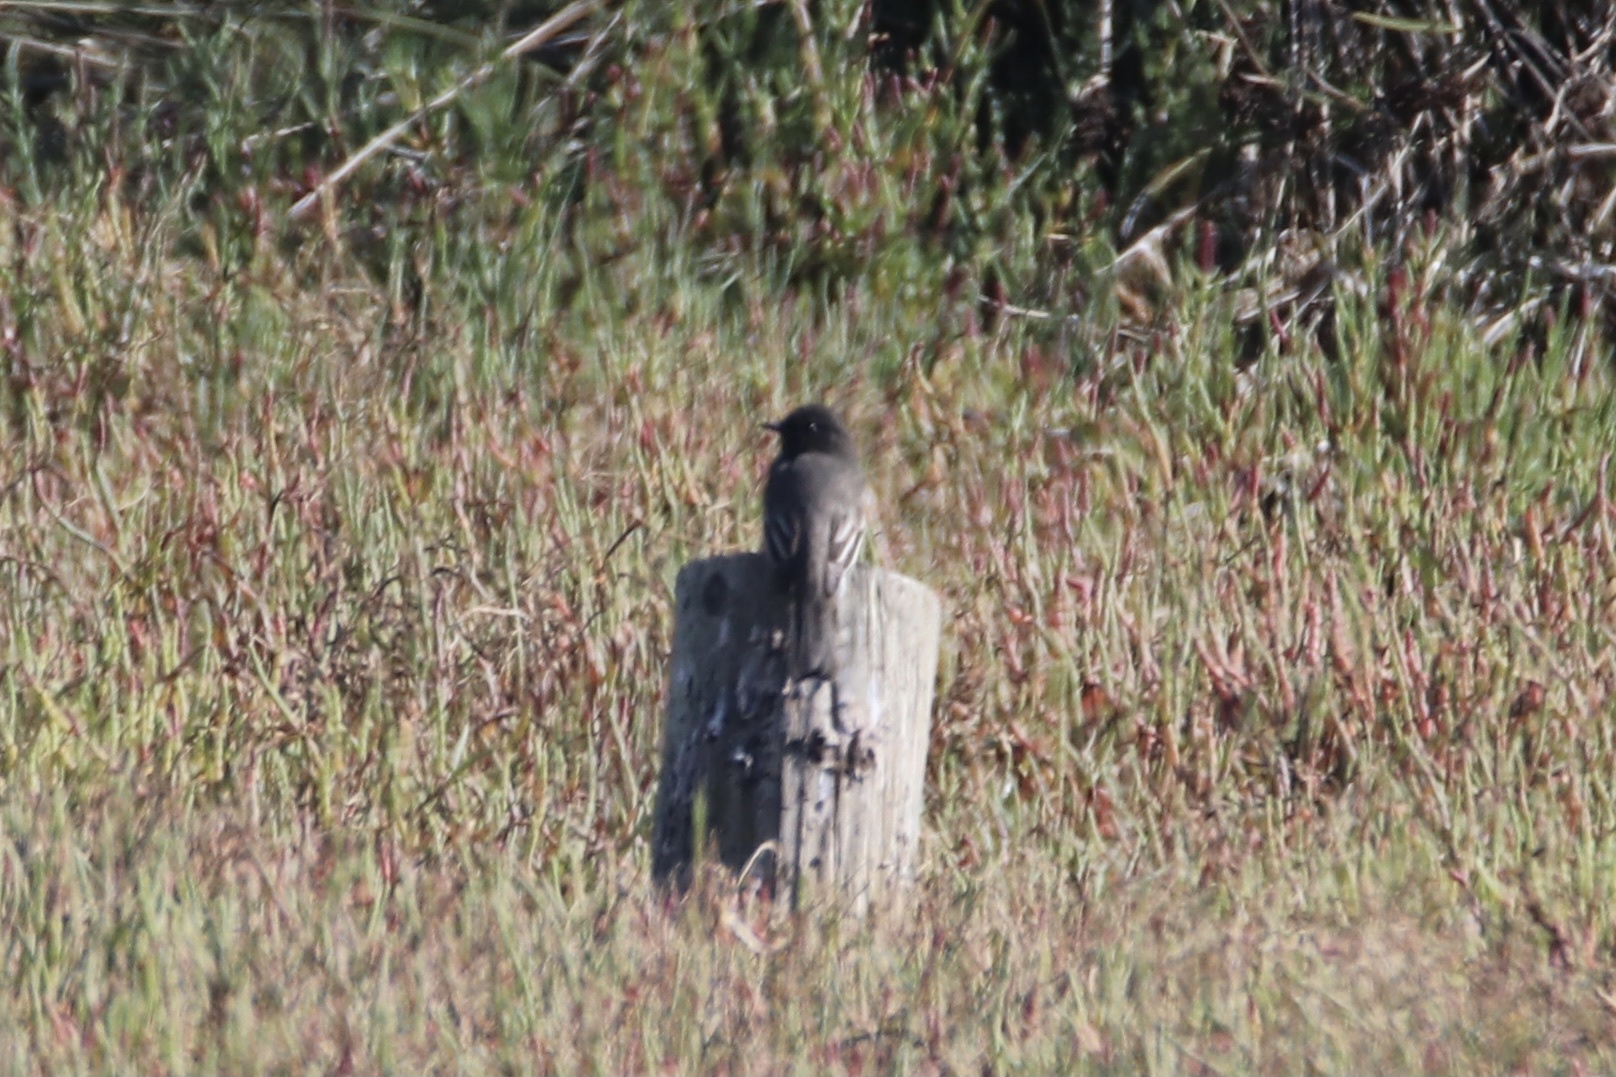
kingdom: Animalia
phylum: Chordata
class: Aves
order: Passeriformes
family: Tyrannidae
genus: Sayornis
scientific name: Sayornis nigricans
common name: Black phoebe
